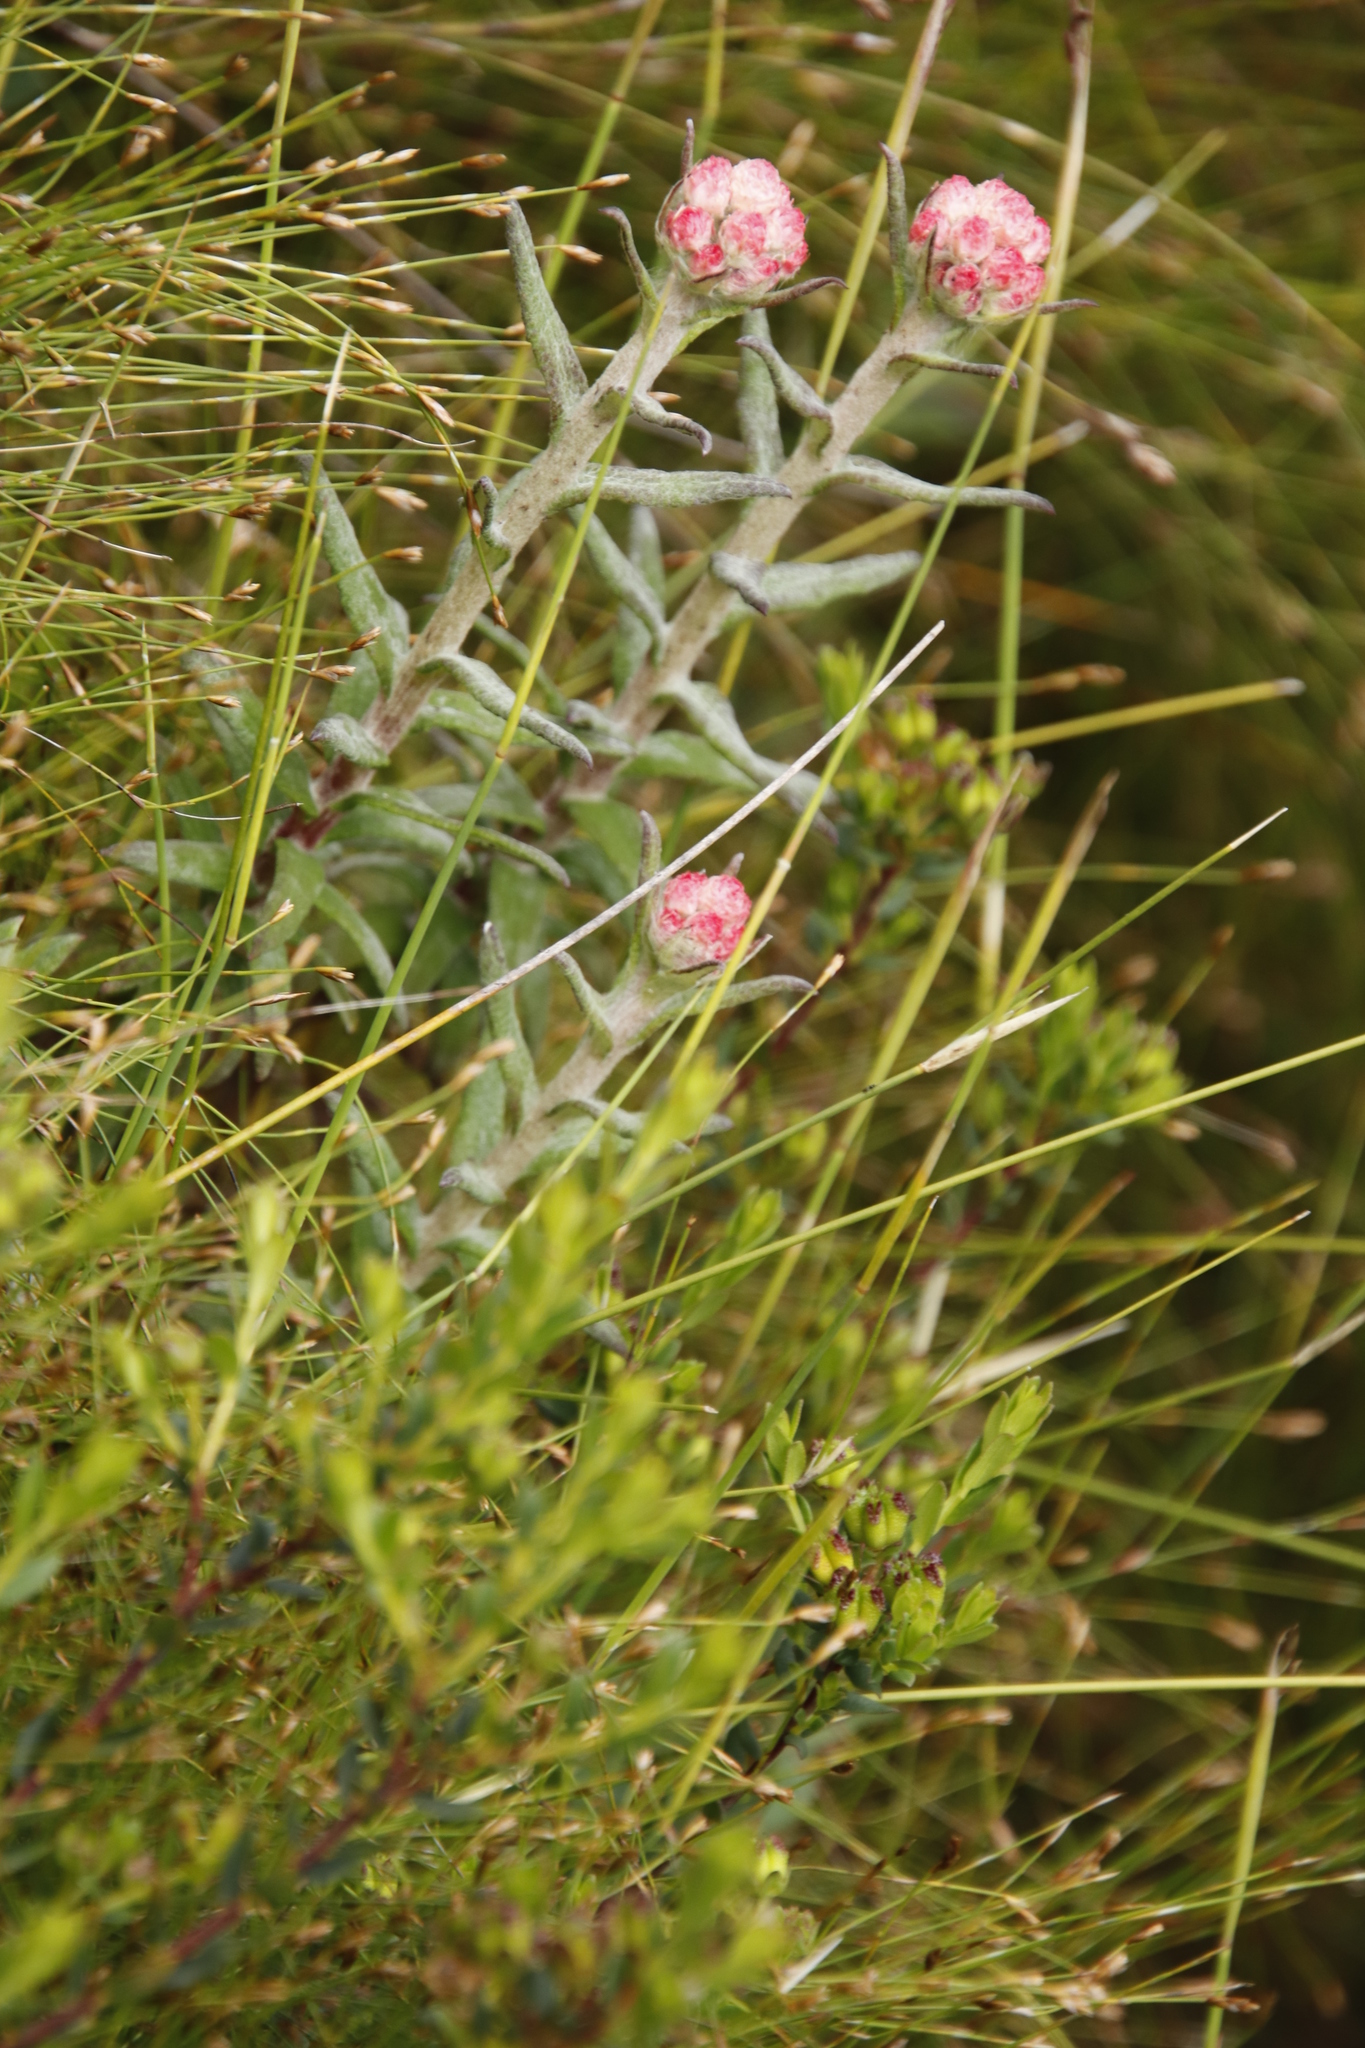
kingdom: Plantae
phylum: Tracheophyta
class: Magnoliopsida
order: Asterales
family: Asteraceae
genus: Helichrysum
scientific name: Helichrysum felinum
